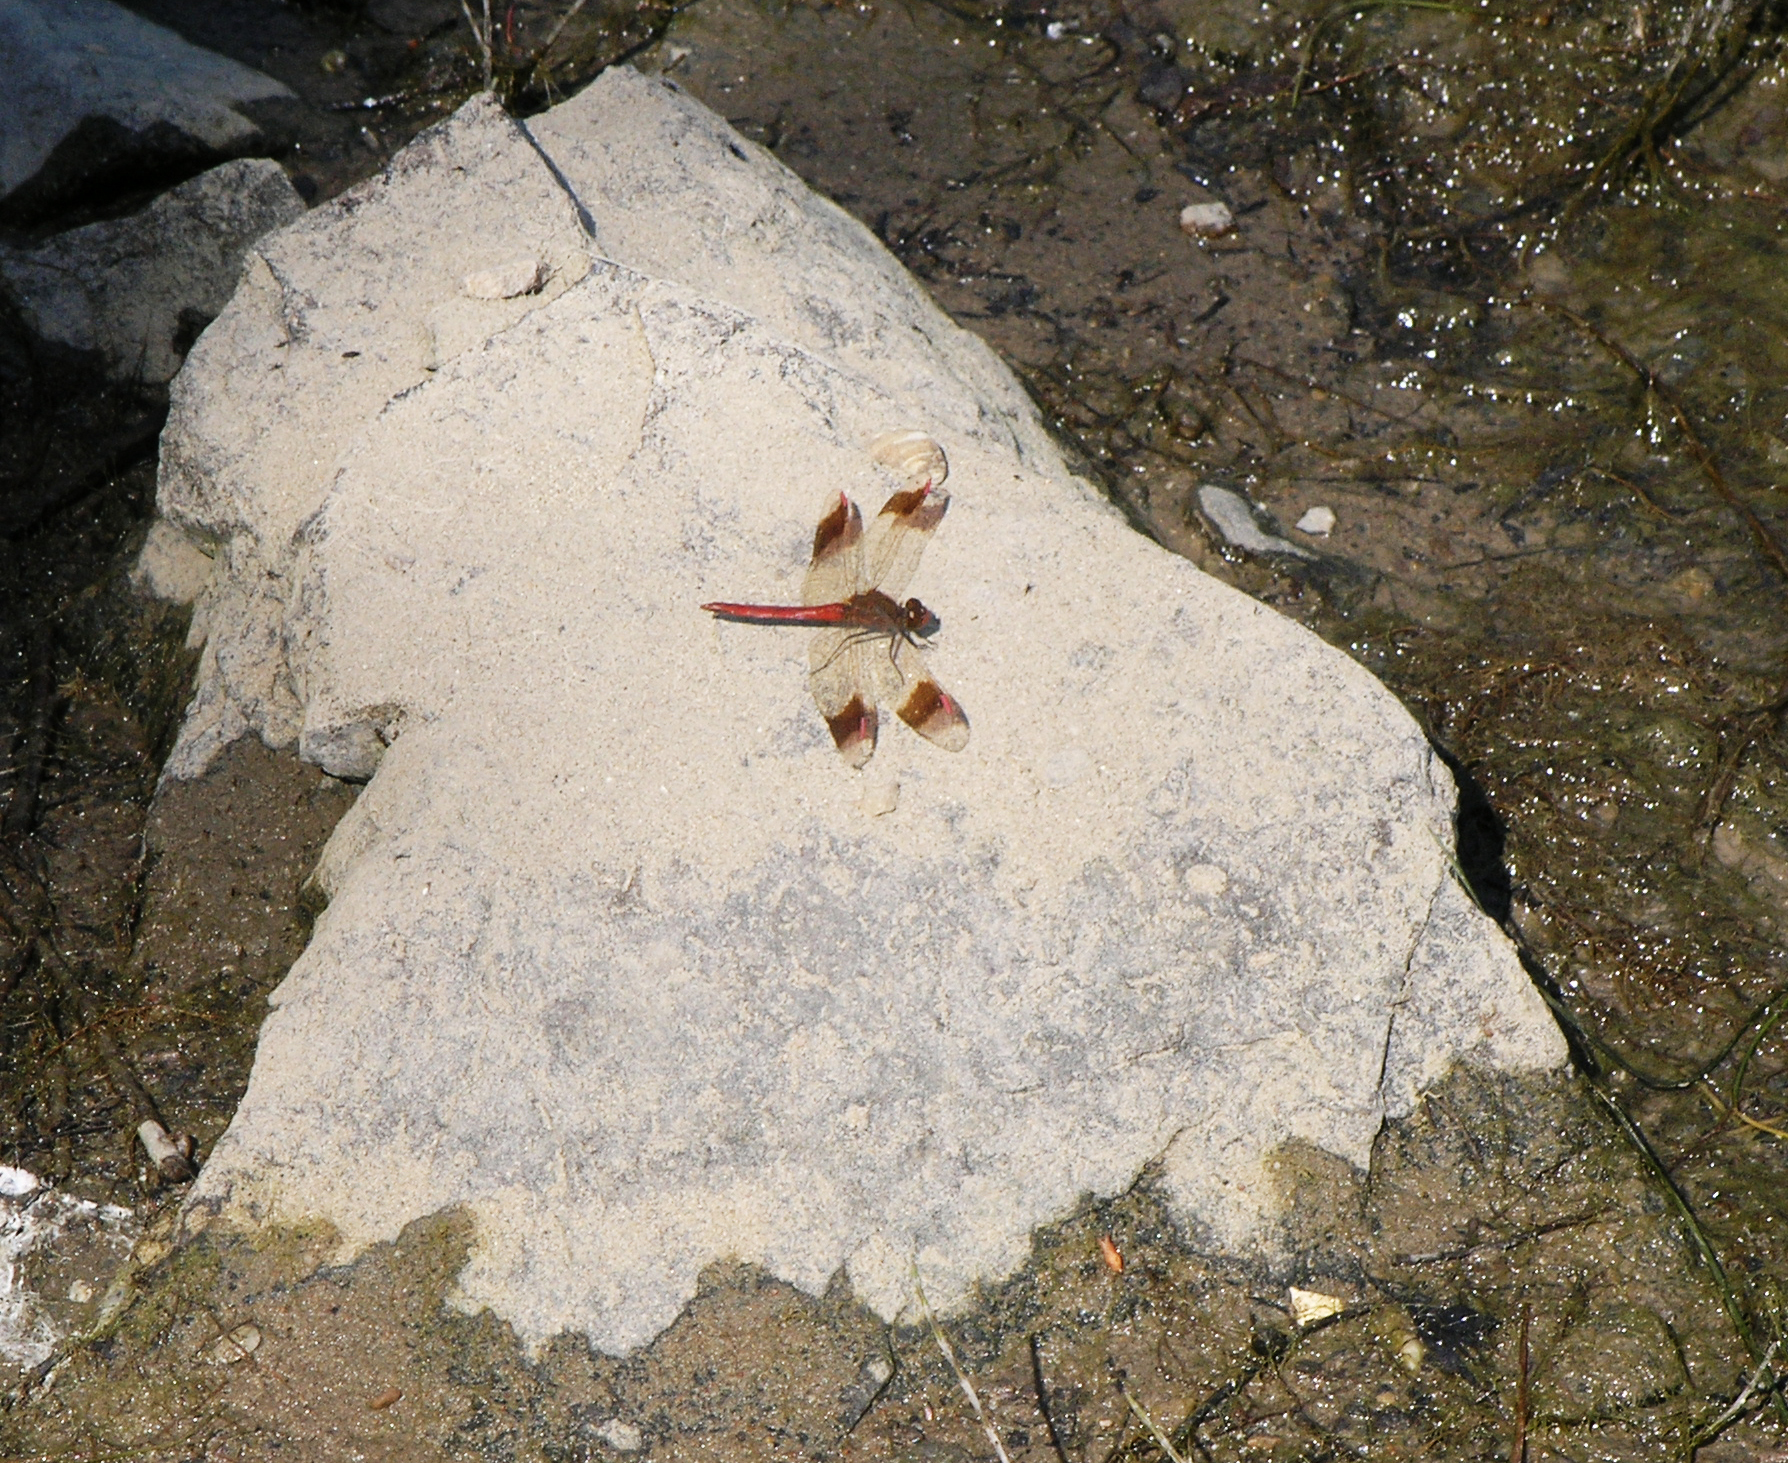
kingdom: Animalia
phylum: Arthropoda
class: Insecta
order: Odonata
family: Libellulidae
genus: Sympetrum
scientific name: Sympetrum pedemontanum
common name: Banded darter
